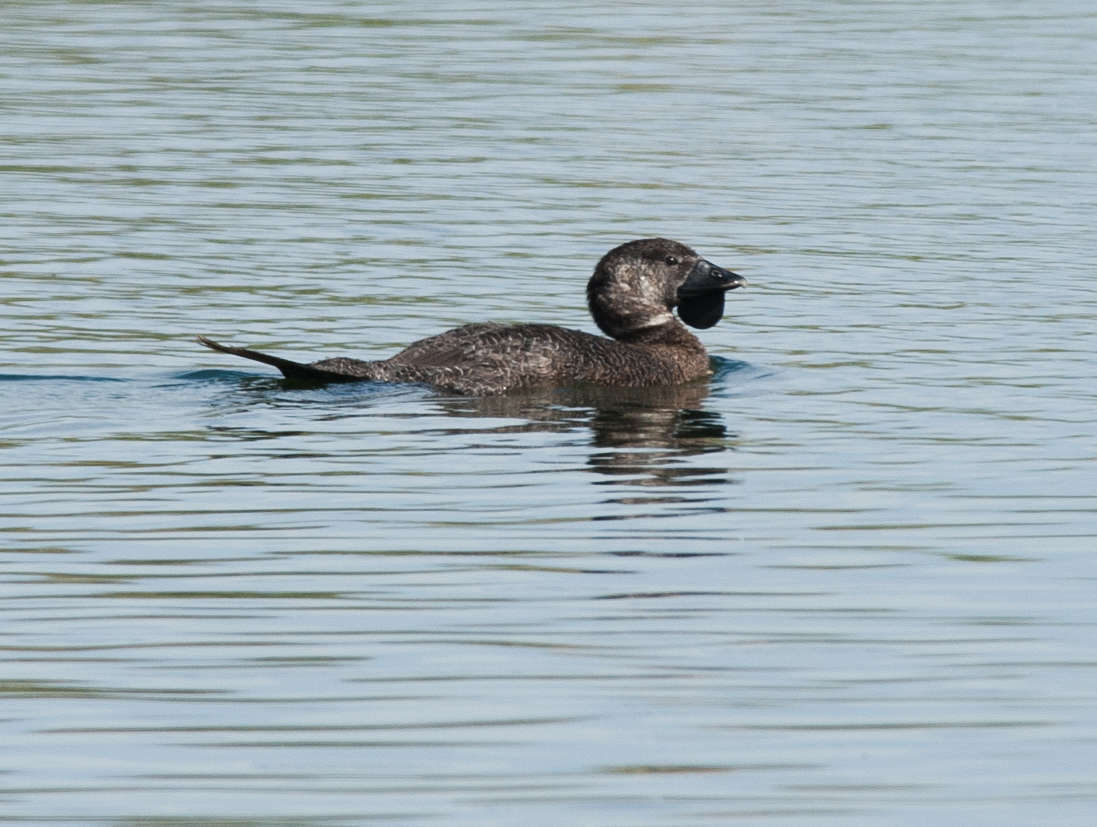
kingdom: Animalia
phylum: Chordata
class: Aves
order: Anseriformes
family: Anatidae
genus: Biziura
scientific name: Biziura lobata
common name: Musk duck
